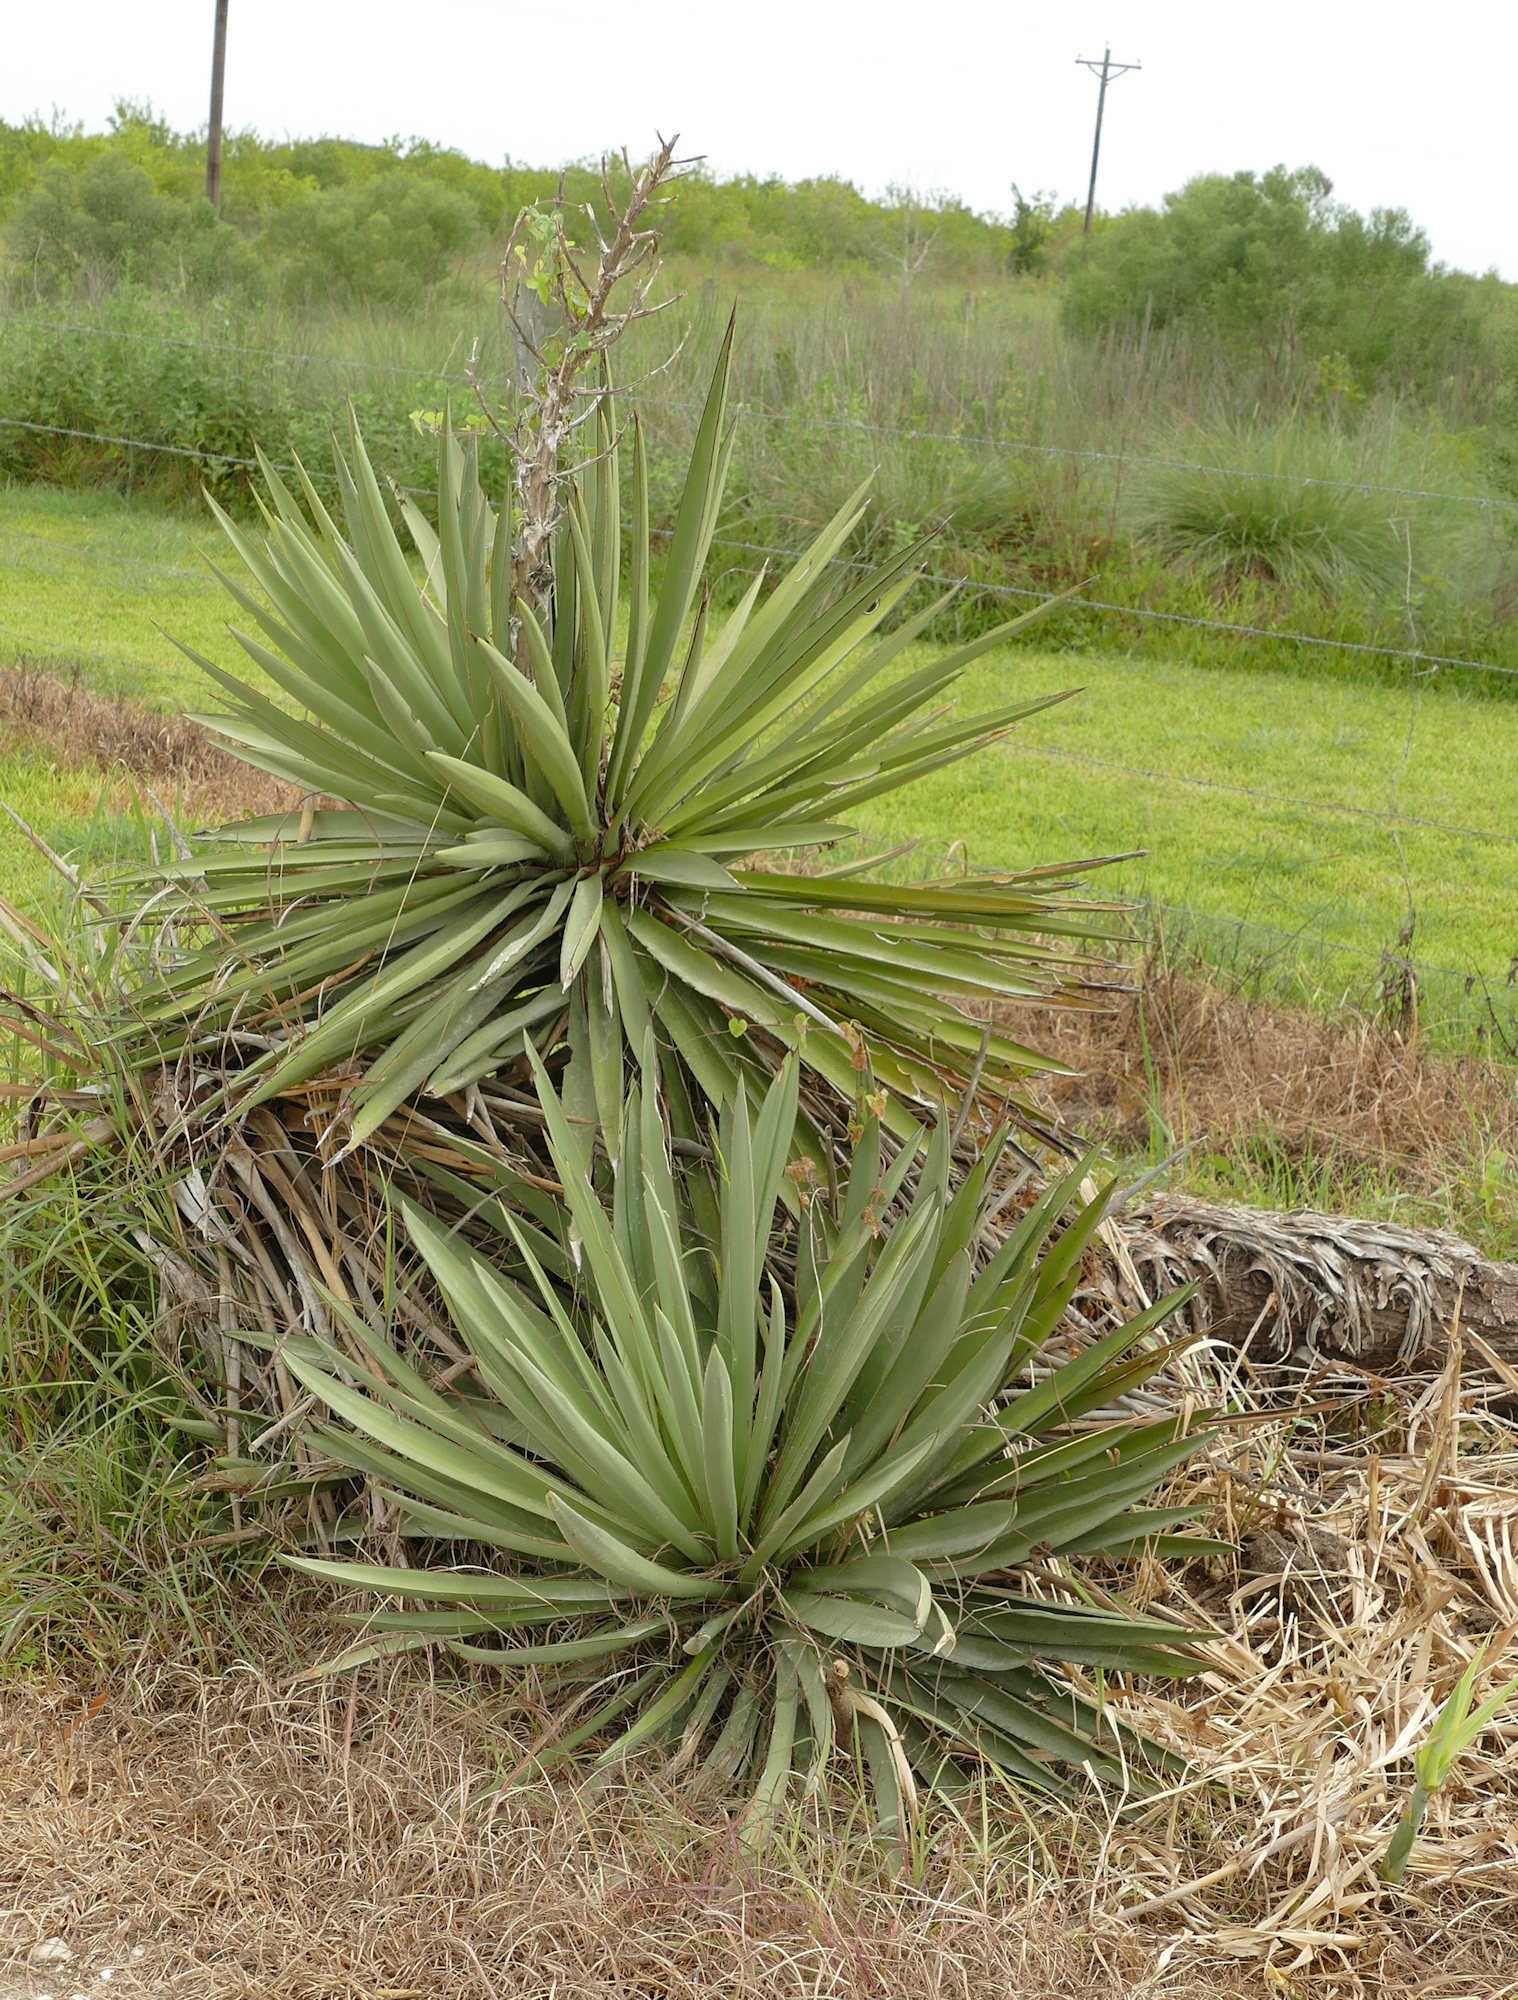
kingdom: Plantae
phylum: Tracheophyta
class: Liliopsida
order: Asparagales
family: Asparagaceae
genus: Yucca
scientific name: Yucca treculiana
